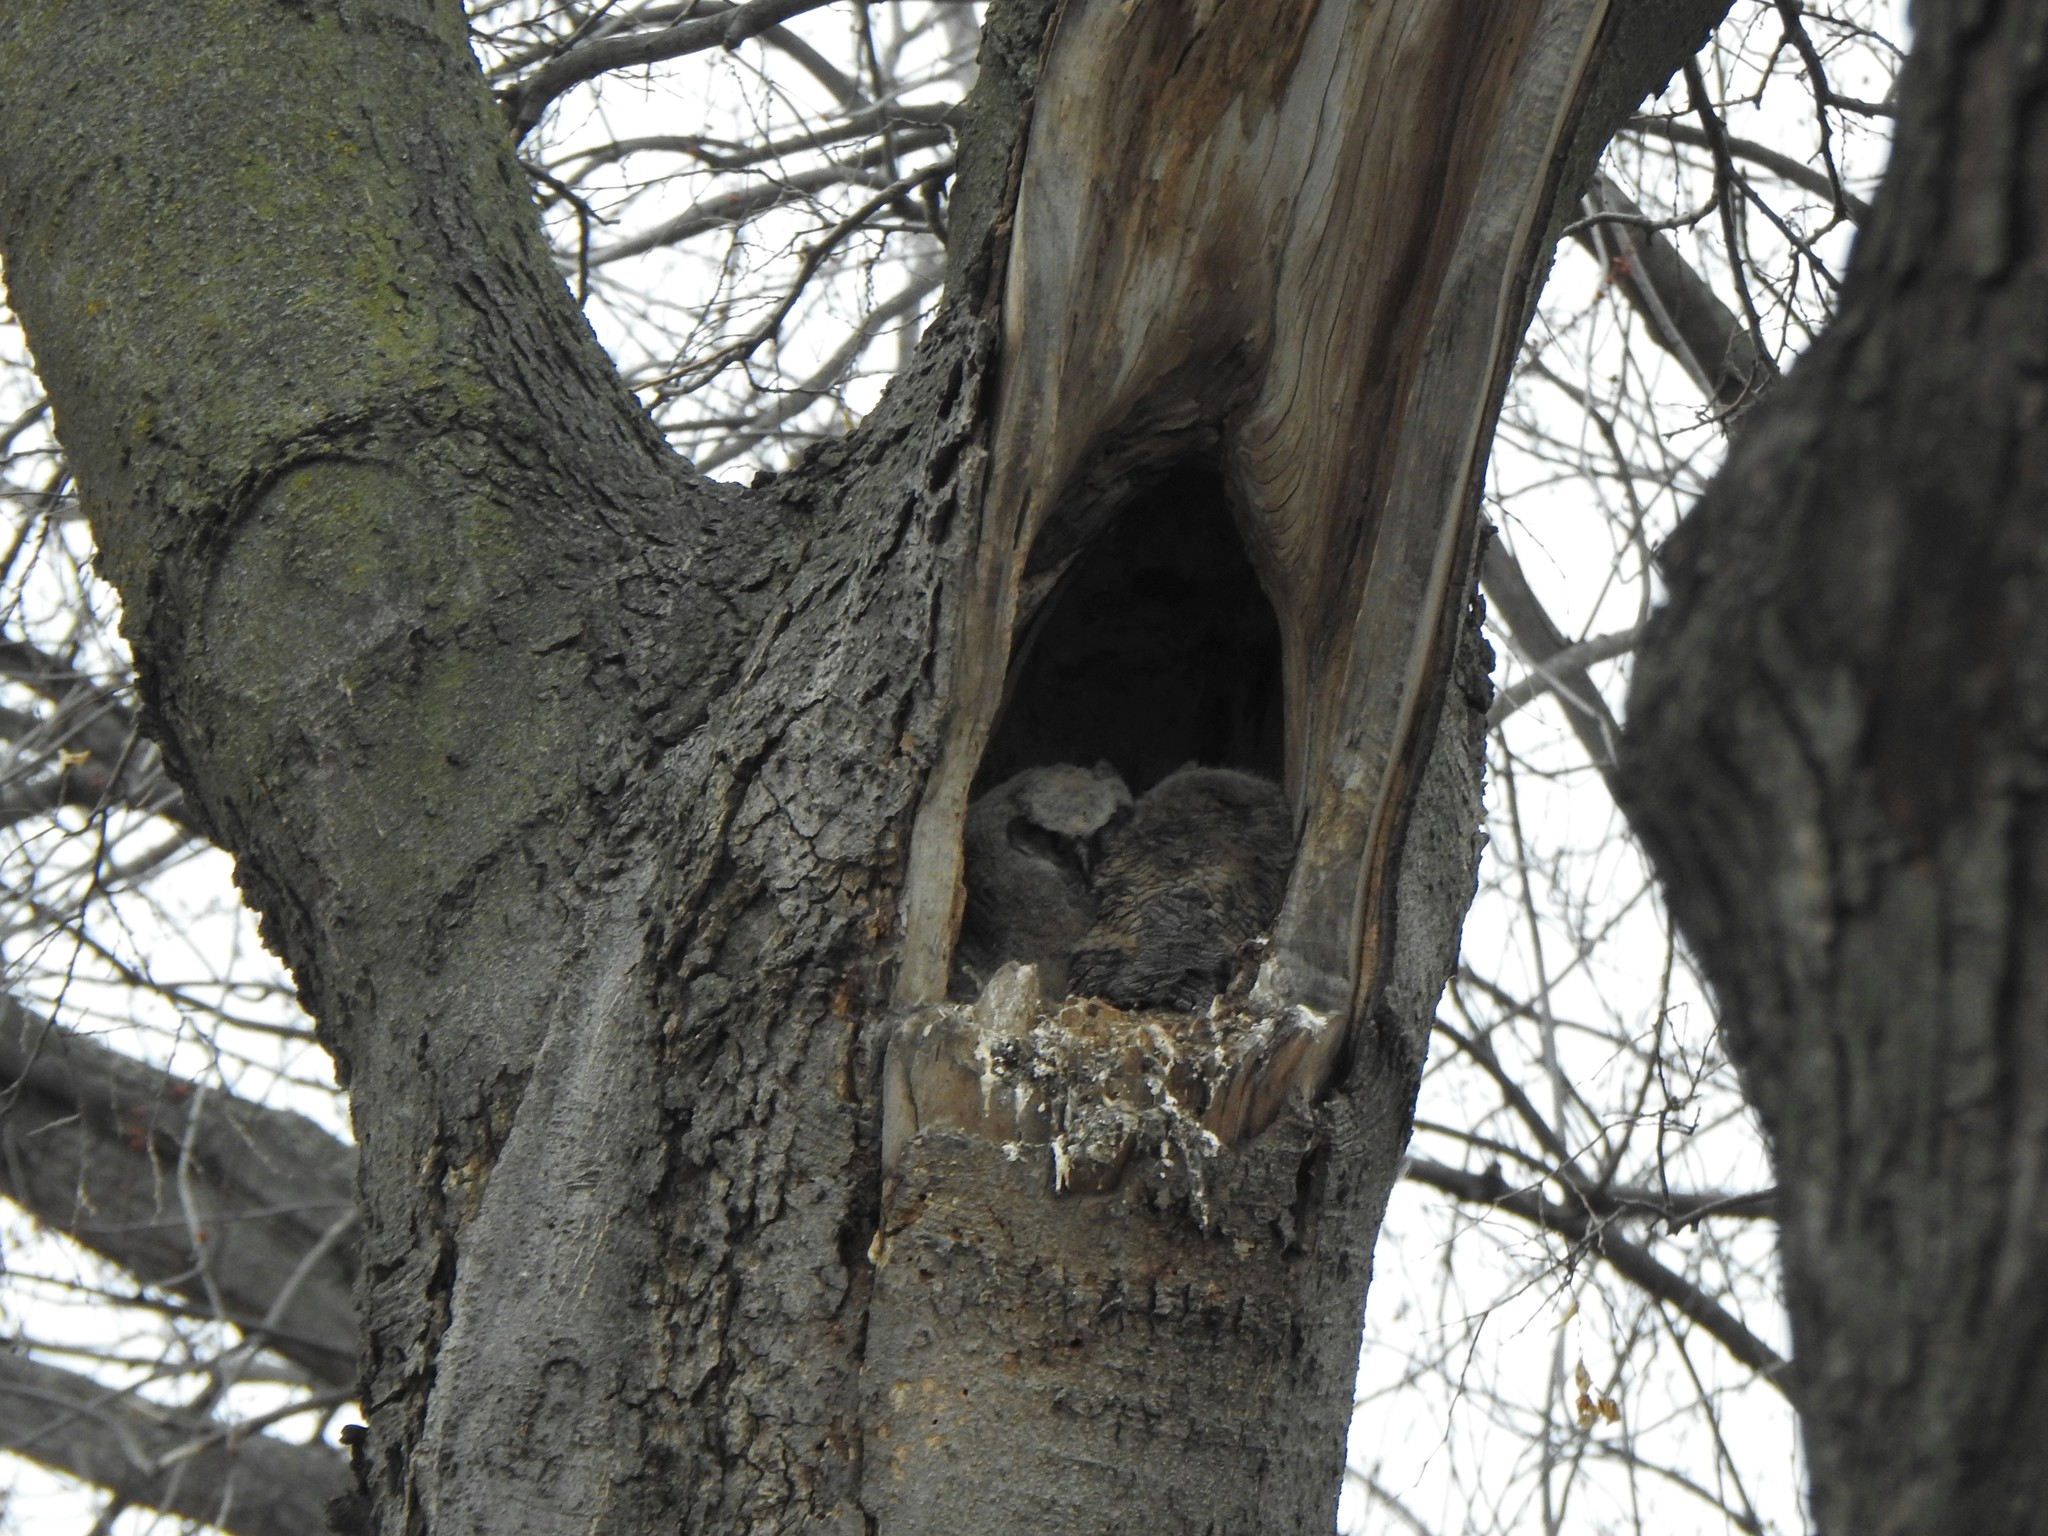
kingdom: Animalia
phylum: Chordata
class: Aves
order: Strigiformes
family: Strigidae
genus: Bubo
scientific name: Bubo virginianus
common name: Great horned owl
